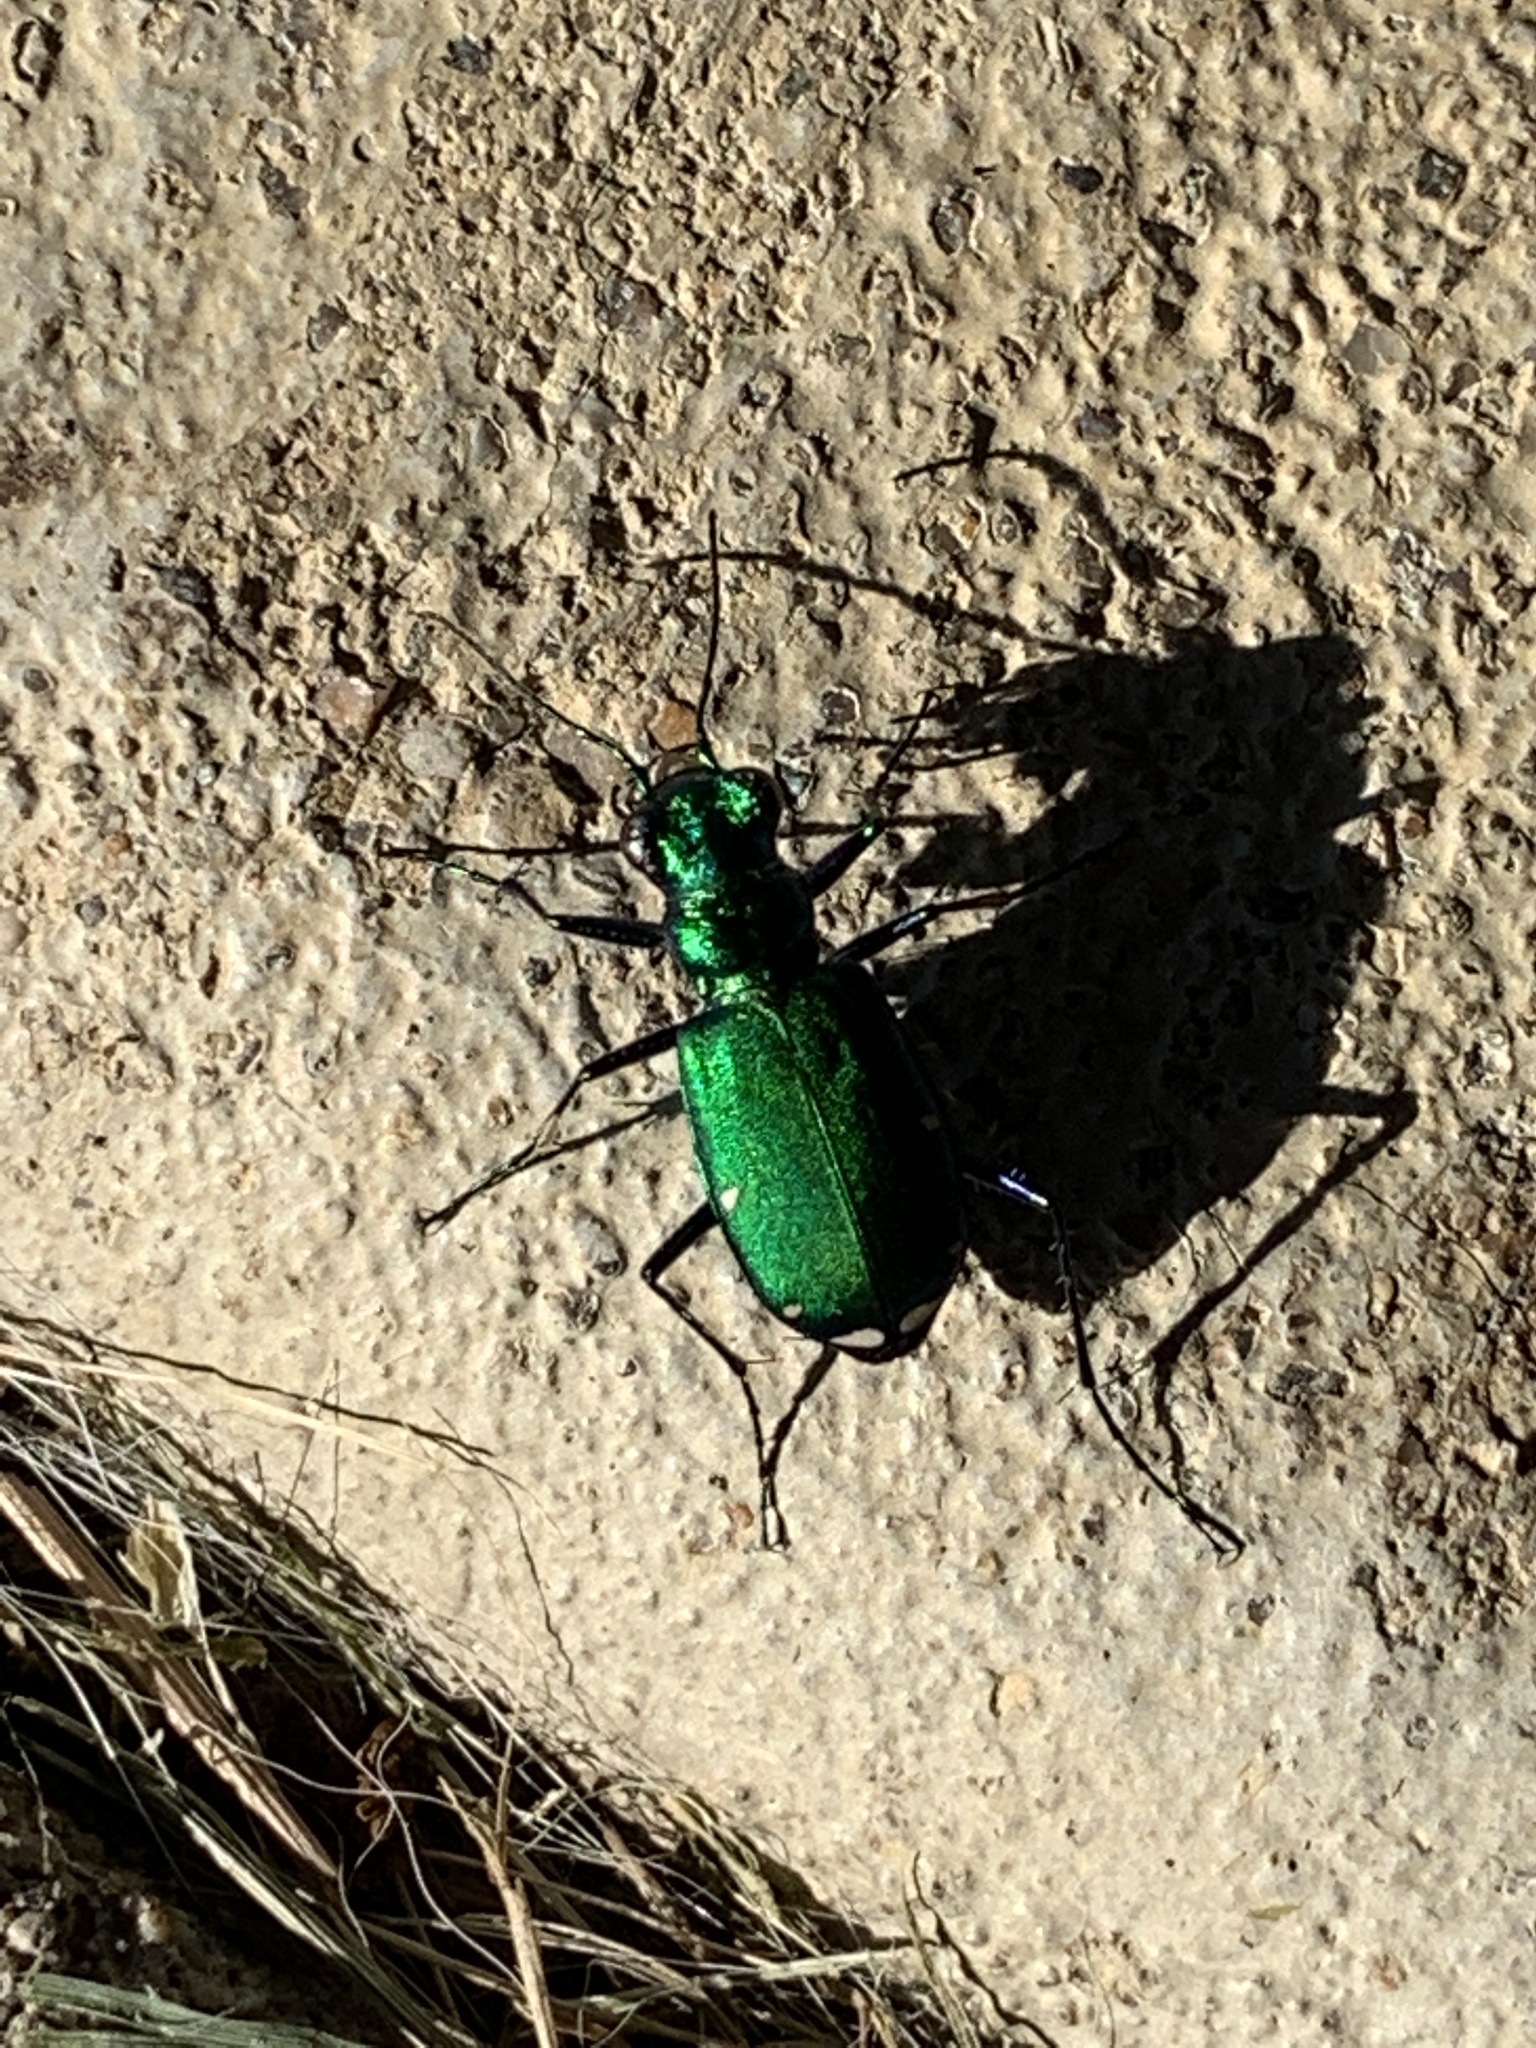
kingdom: Animalia
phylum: Arthropoda
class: Insecta
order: Coleoptera
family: Carabidae
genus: Cicindela
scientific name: Cicindela sexguttata
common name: Six-spotted tiger beetle
